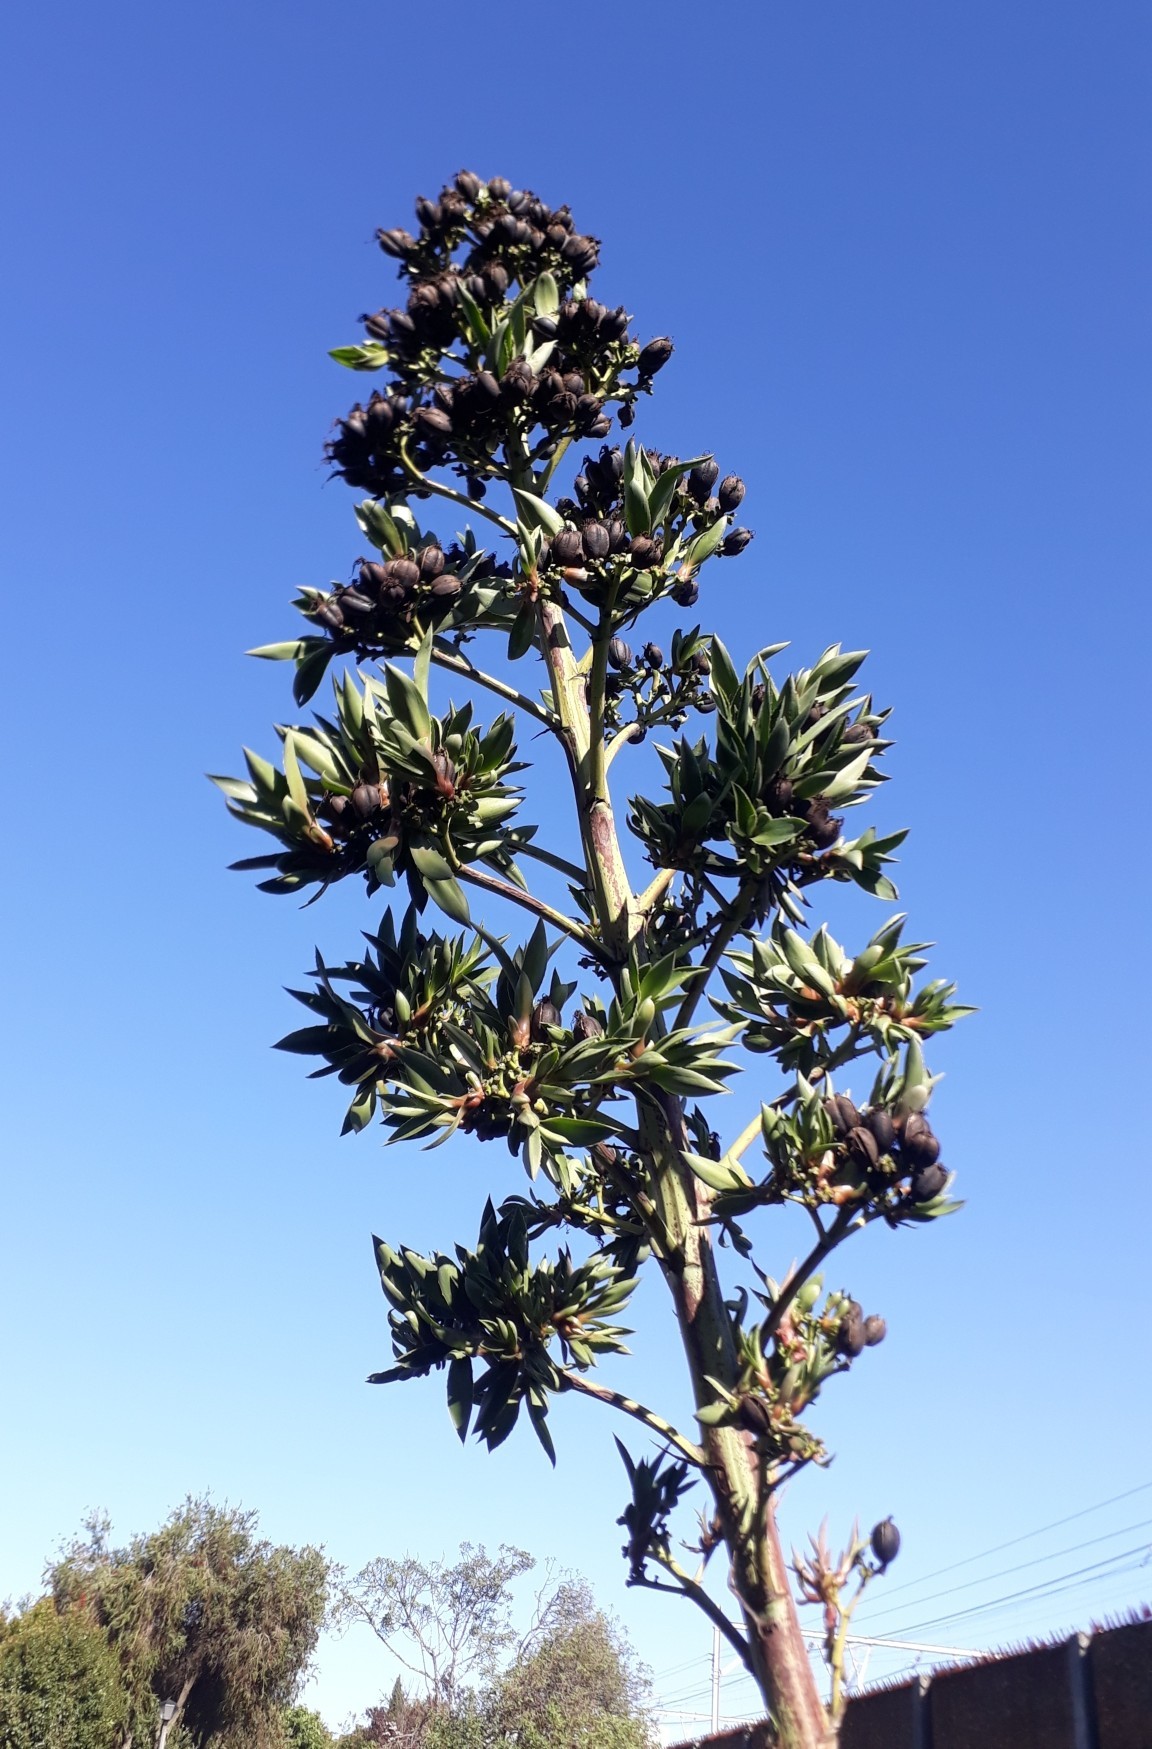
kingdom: Plantae
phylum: Tracheophyta
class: Liliopsida
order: Asparagales
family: Asparagaceae
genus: Agave
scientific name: Agave americana
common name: Centuryplant
